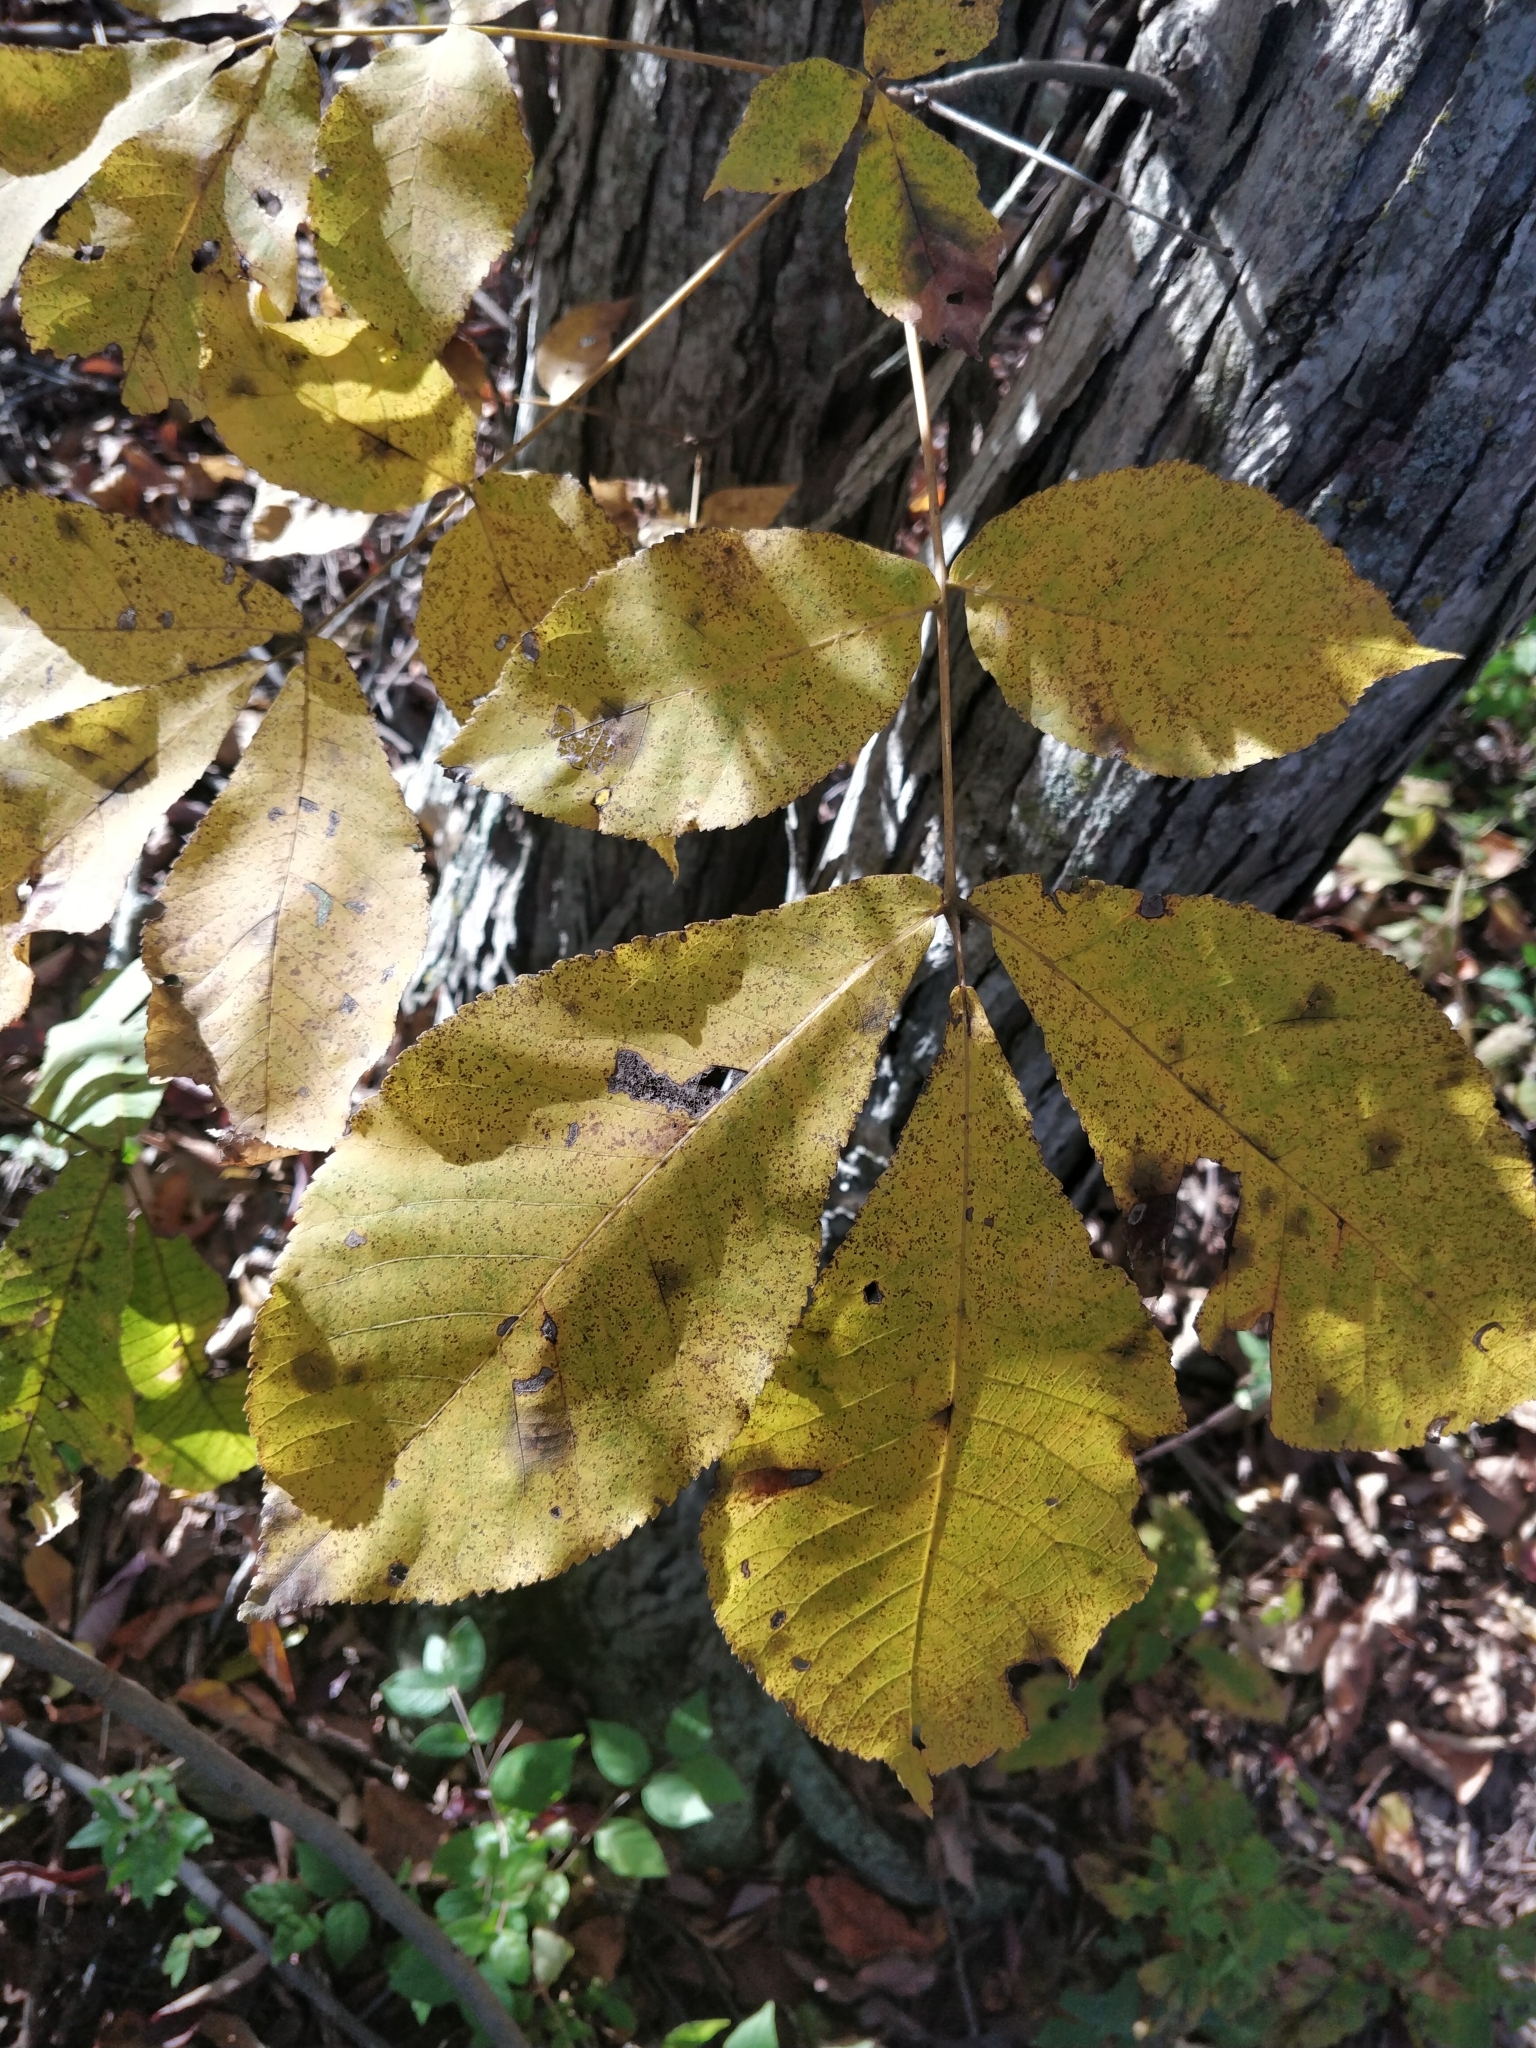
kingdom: Plantae
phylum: Tracheophyta
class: Magnoliopsida
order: Fagales
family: Juglandaceae
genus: Carya
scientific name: Carya ovata
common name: Shagbark hickory
